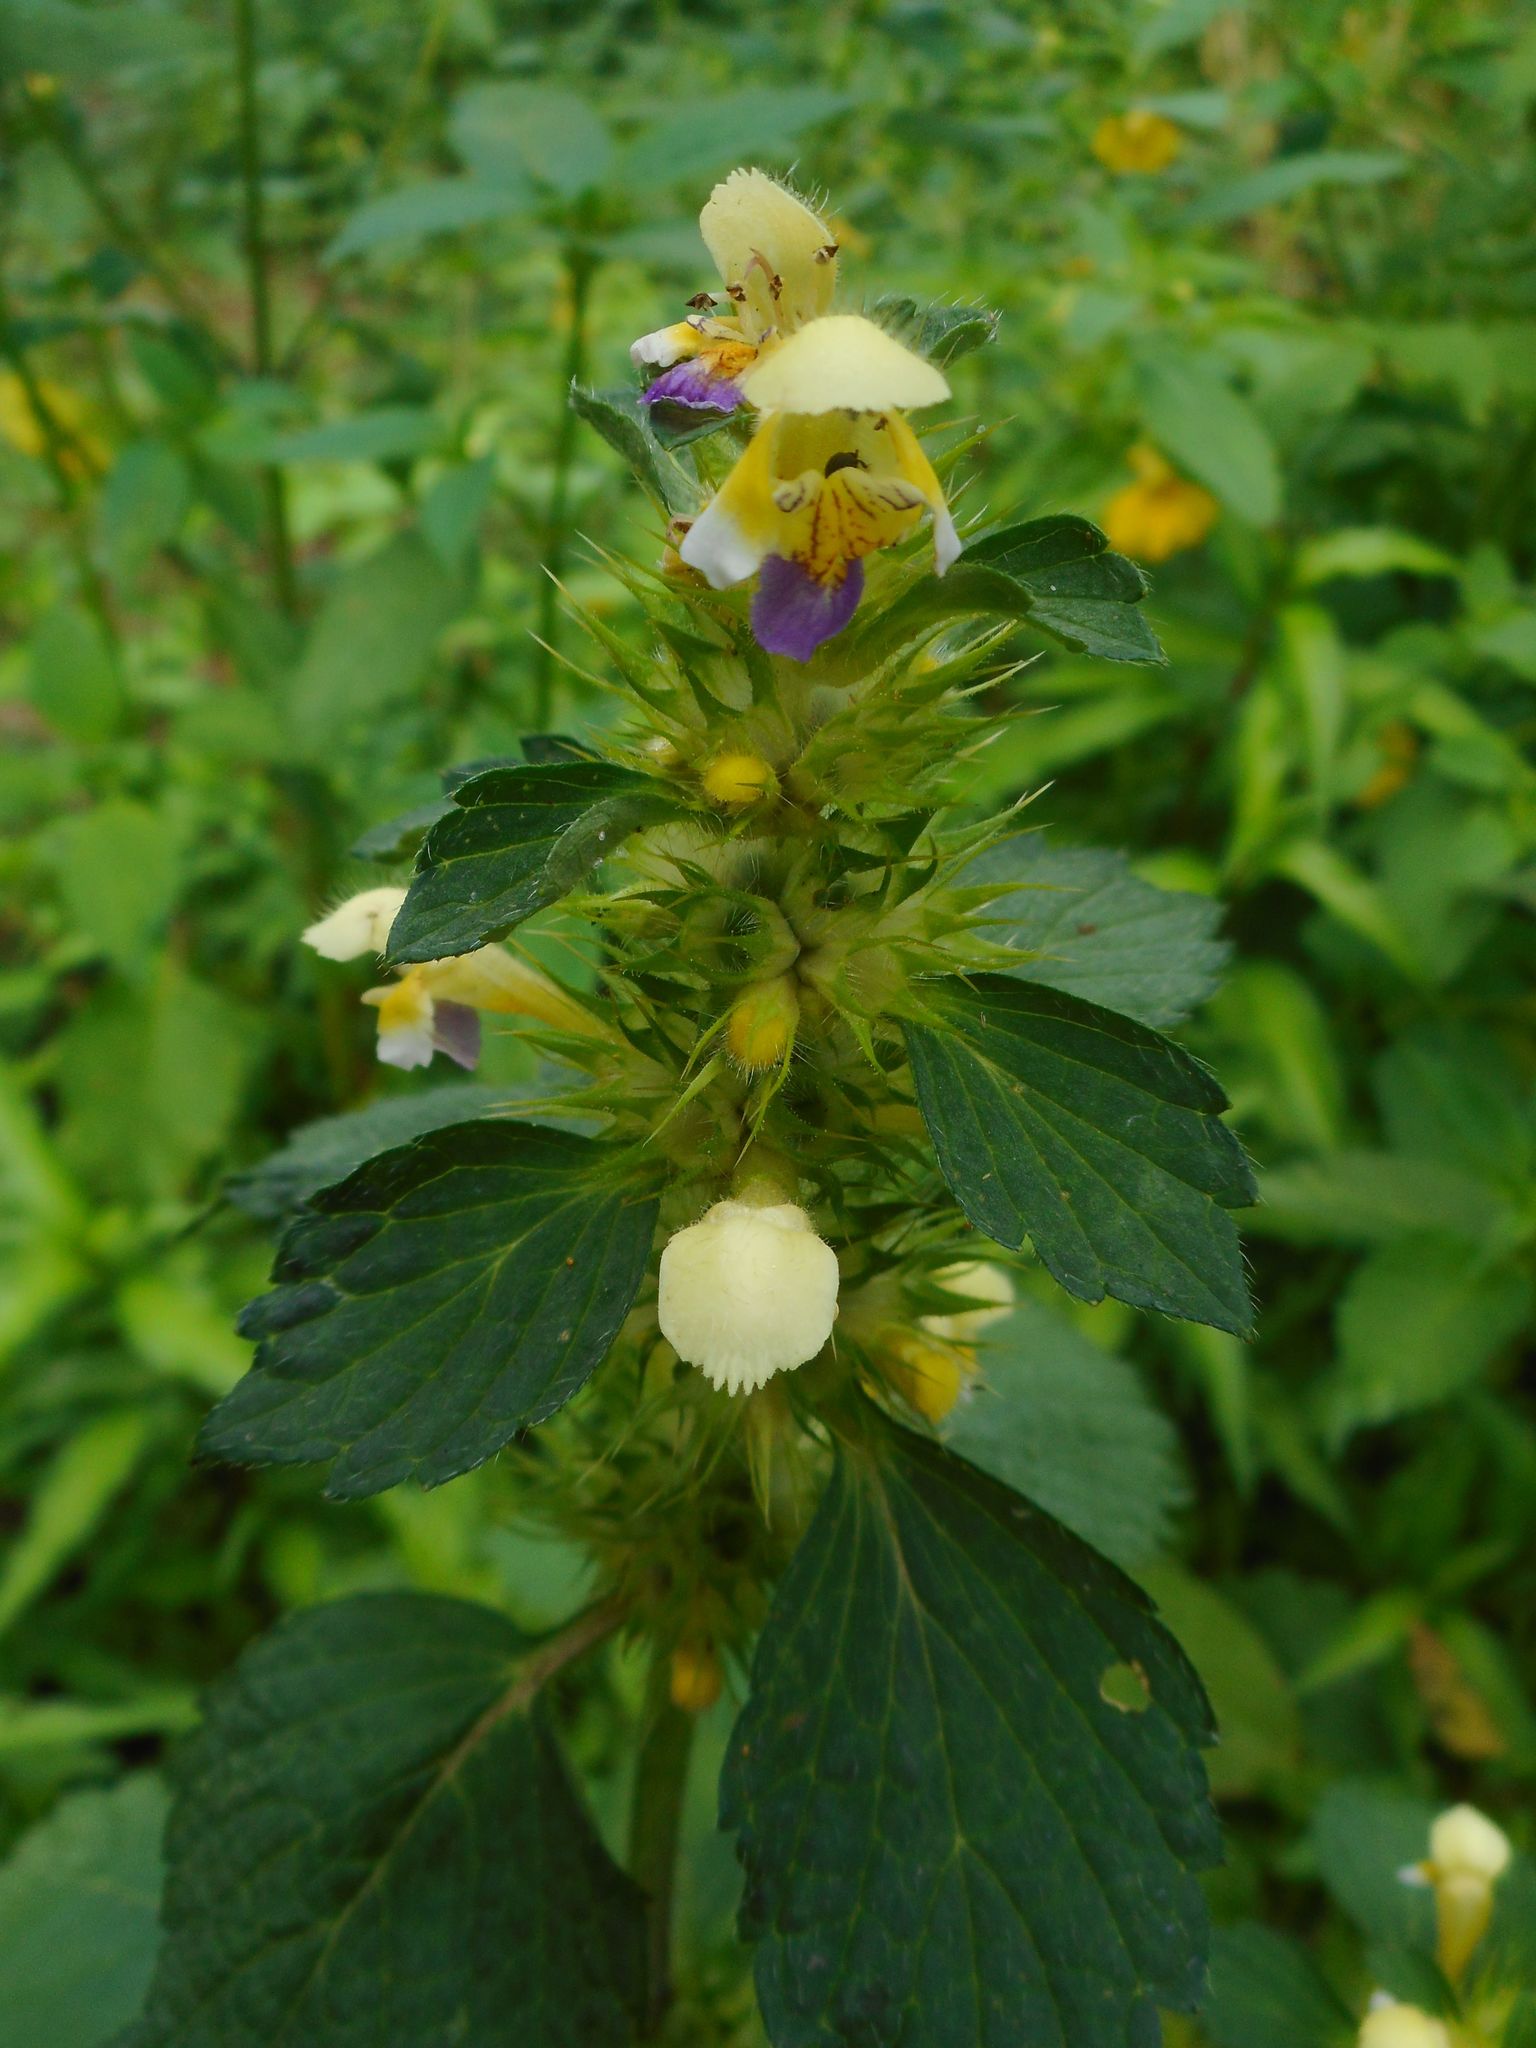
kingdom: Plantae
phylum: Tracheophyta
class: Magnoliopsida
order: Lamiales
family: Lamiaceae
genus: Galeopsis
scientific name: Galeopsis speciosa
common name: Large-flowered hemp-nettle
